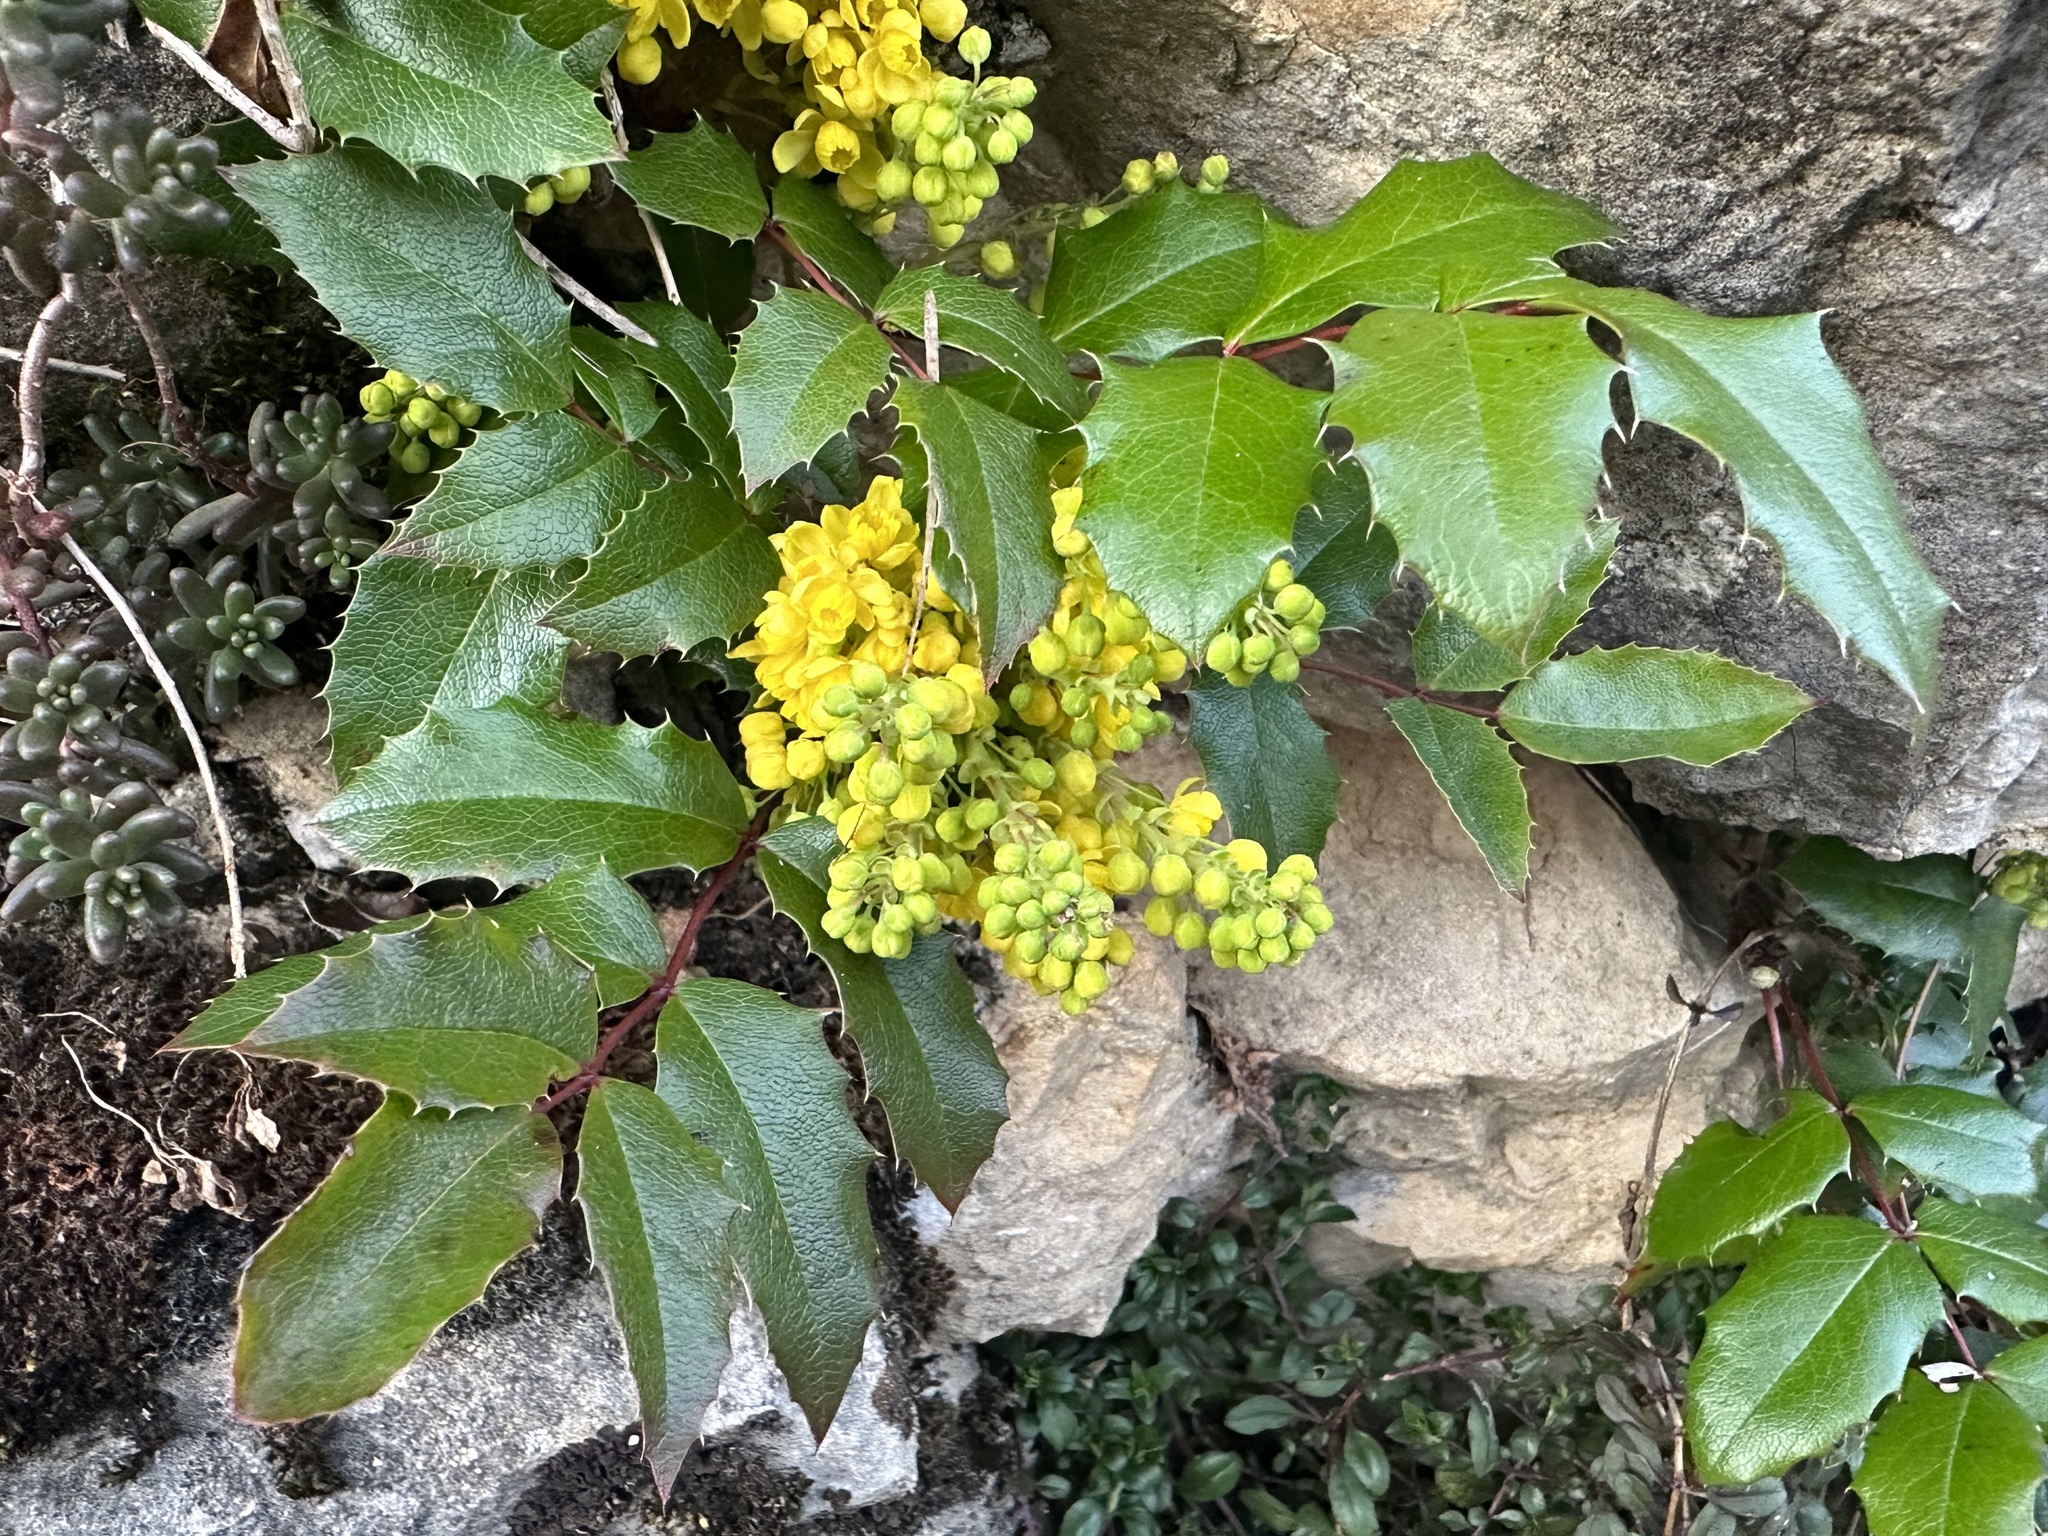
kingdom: Plantae
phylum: Tracheophyta
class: Magnoliopsida
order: Ranunculales
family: Berberidaceae
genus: Mahonia
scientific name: Mahonia aquifolium
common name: Oregon-grape
